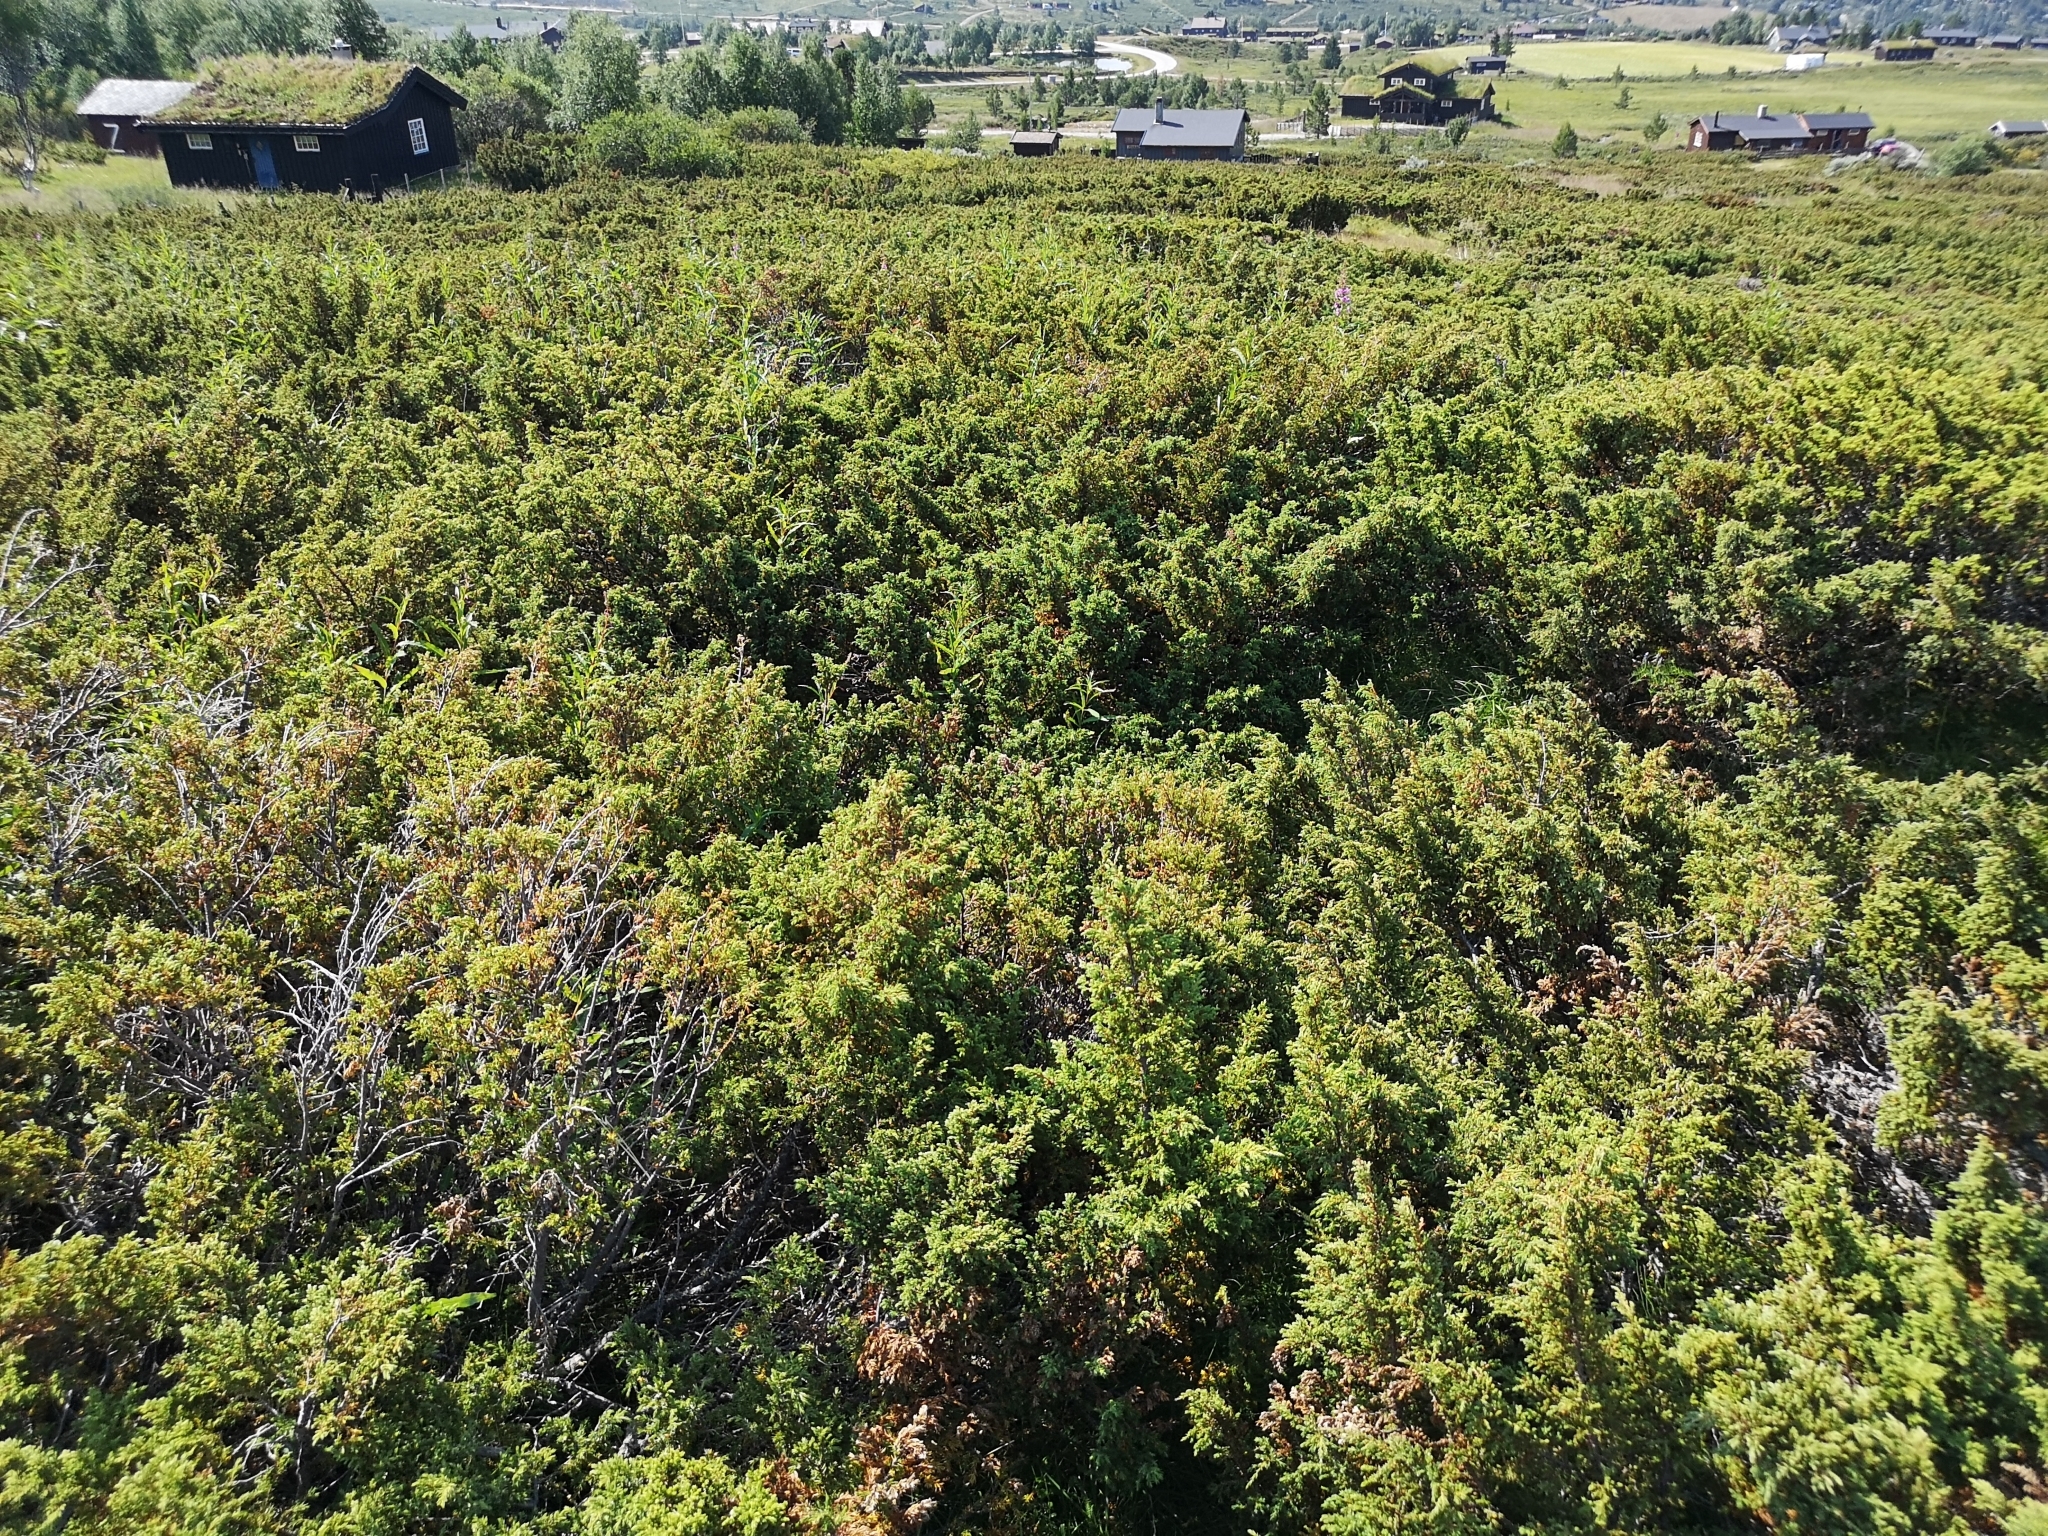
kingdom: Plantae
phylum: Tracheophyta
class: Pinopsida
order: Pinales
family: Cupressaceae
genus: Juniperus
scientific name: Juniperus communis
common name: Common juniper
